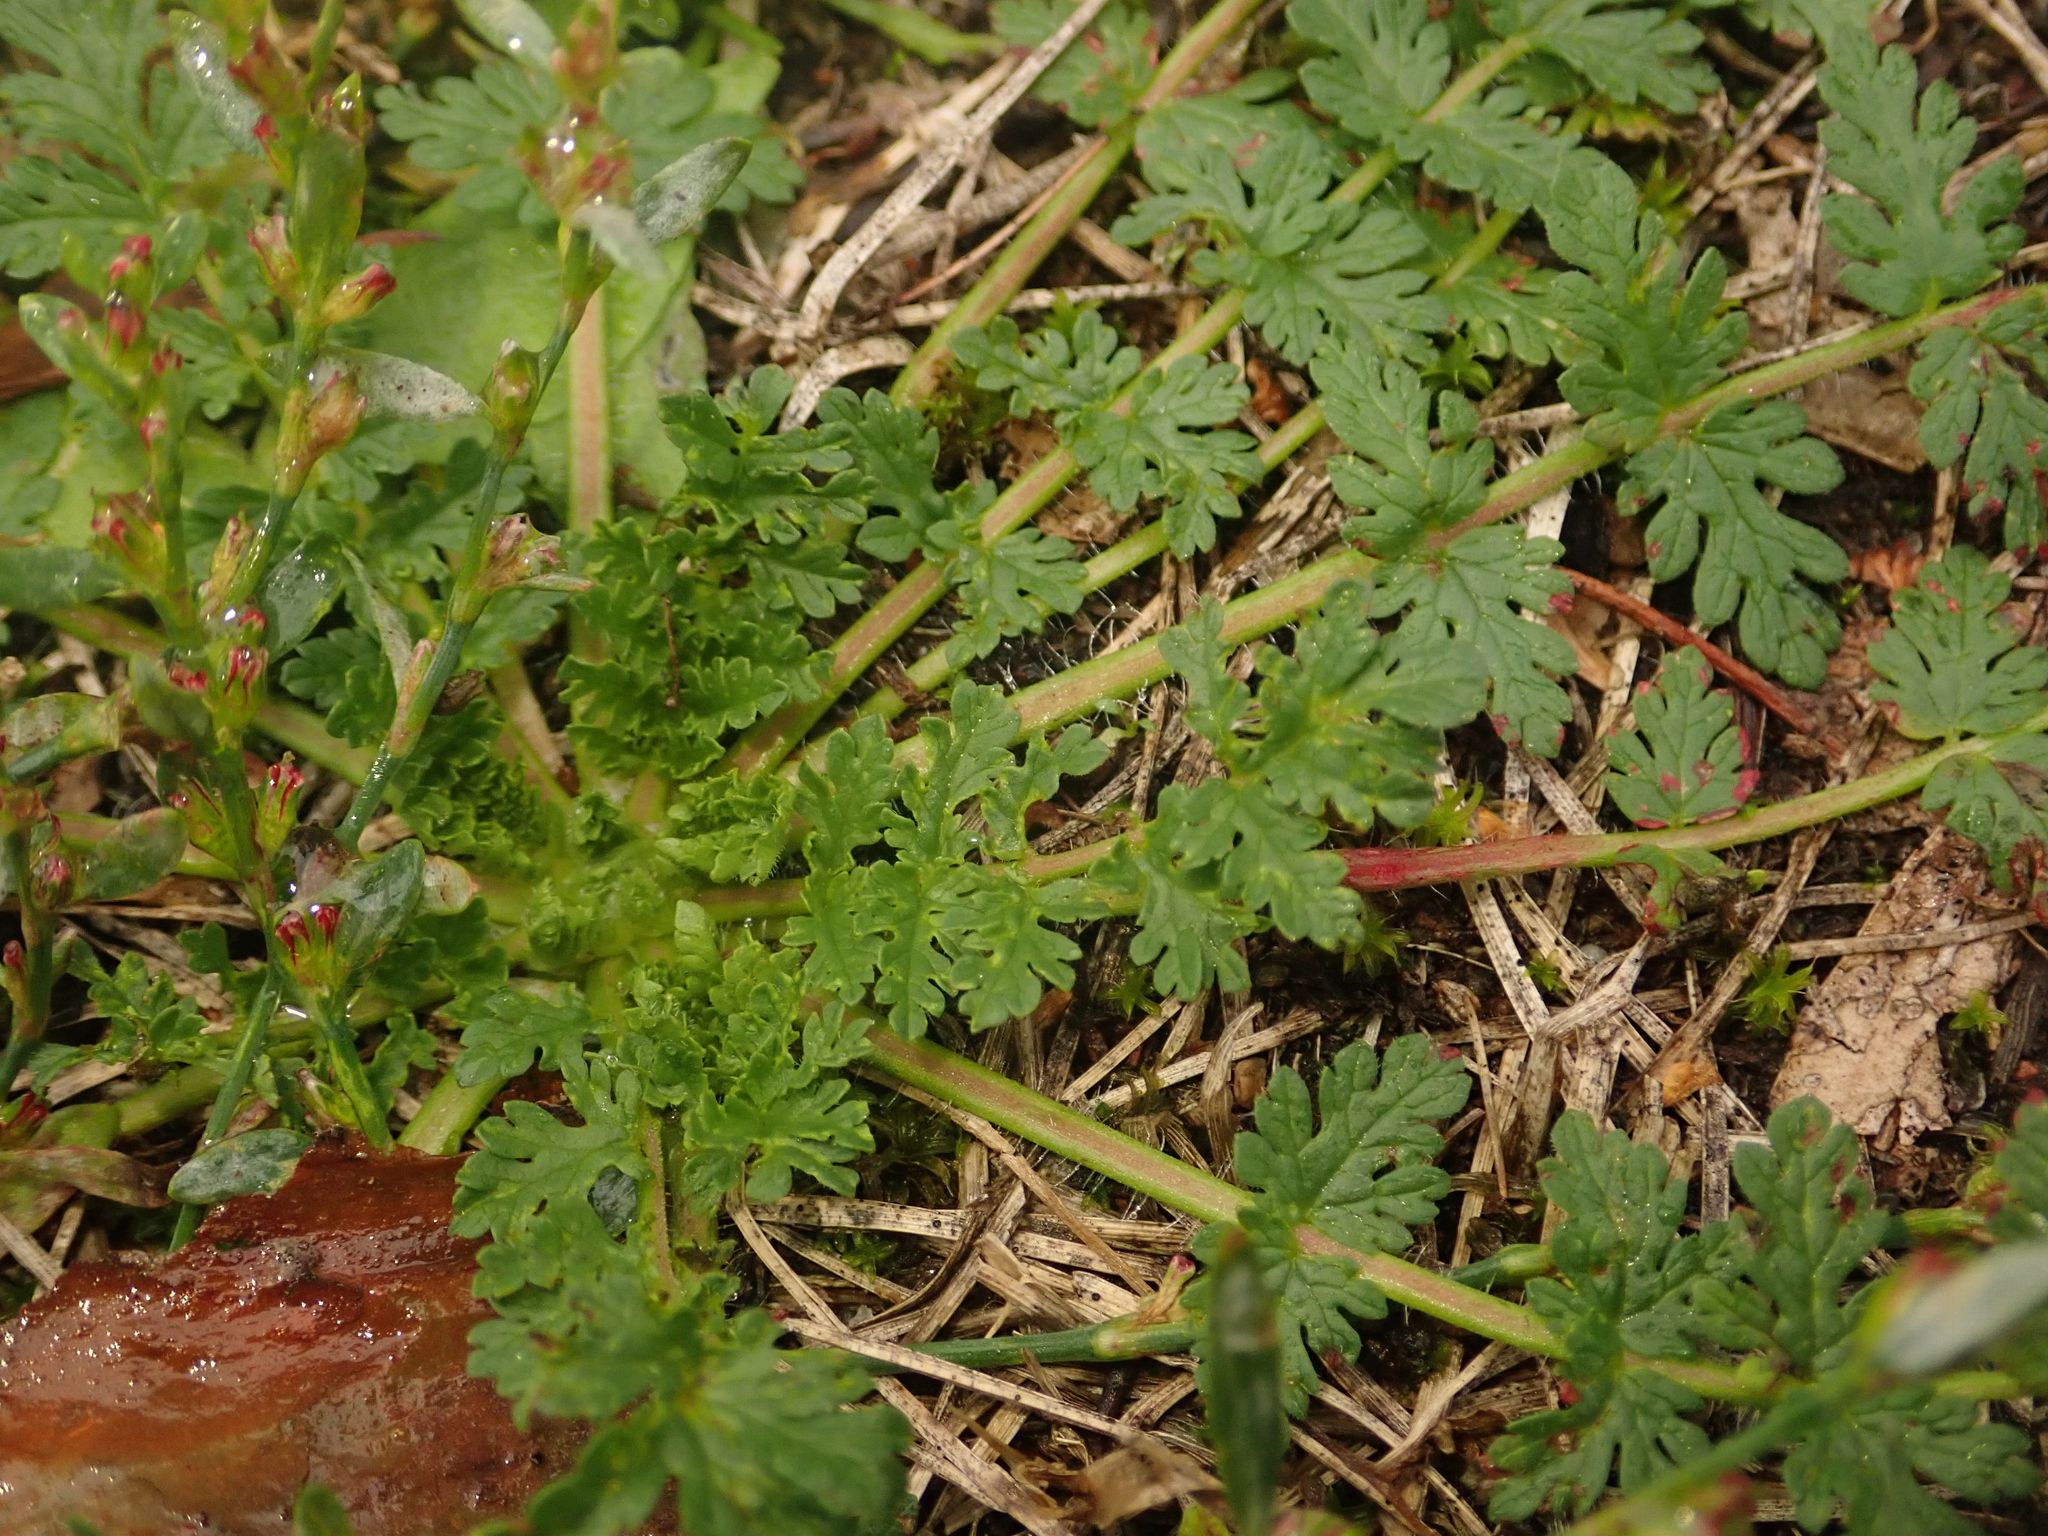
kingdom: Plantae
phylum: Tracheophyta
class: Magnoliopsida
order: Geraniales
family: Geraniaceae
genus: Erodium
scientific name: Erodium cicutarium
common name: Common stork's-bill
